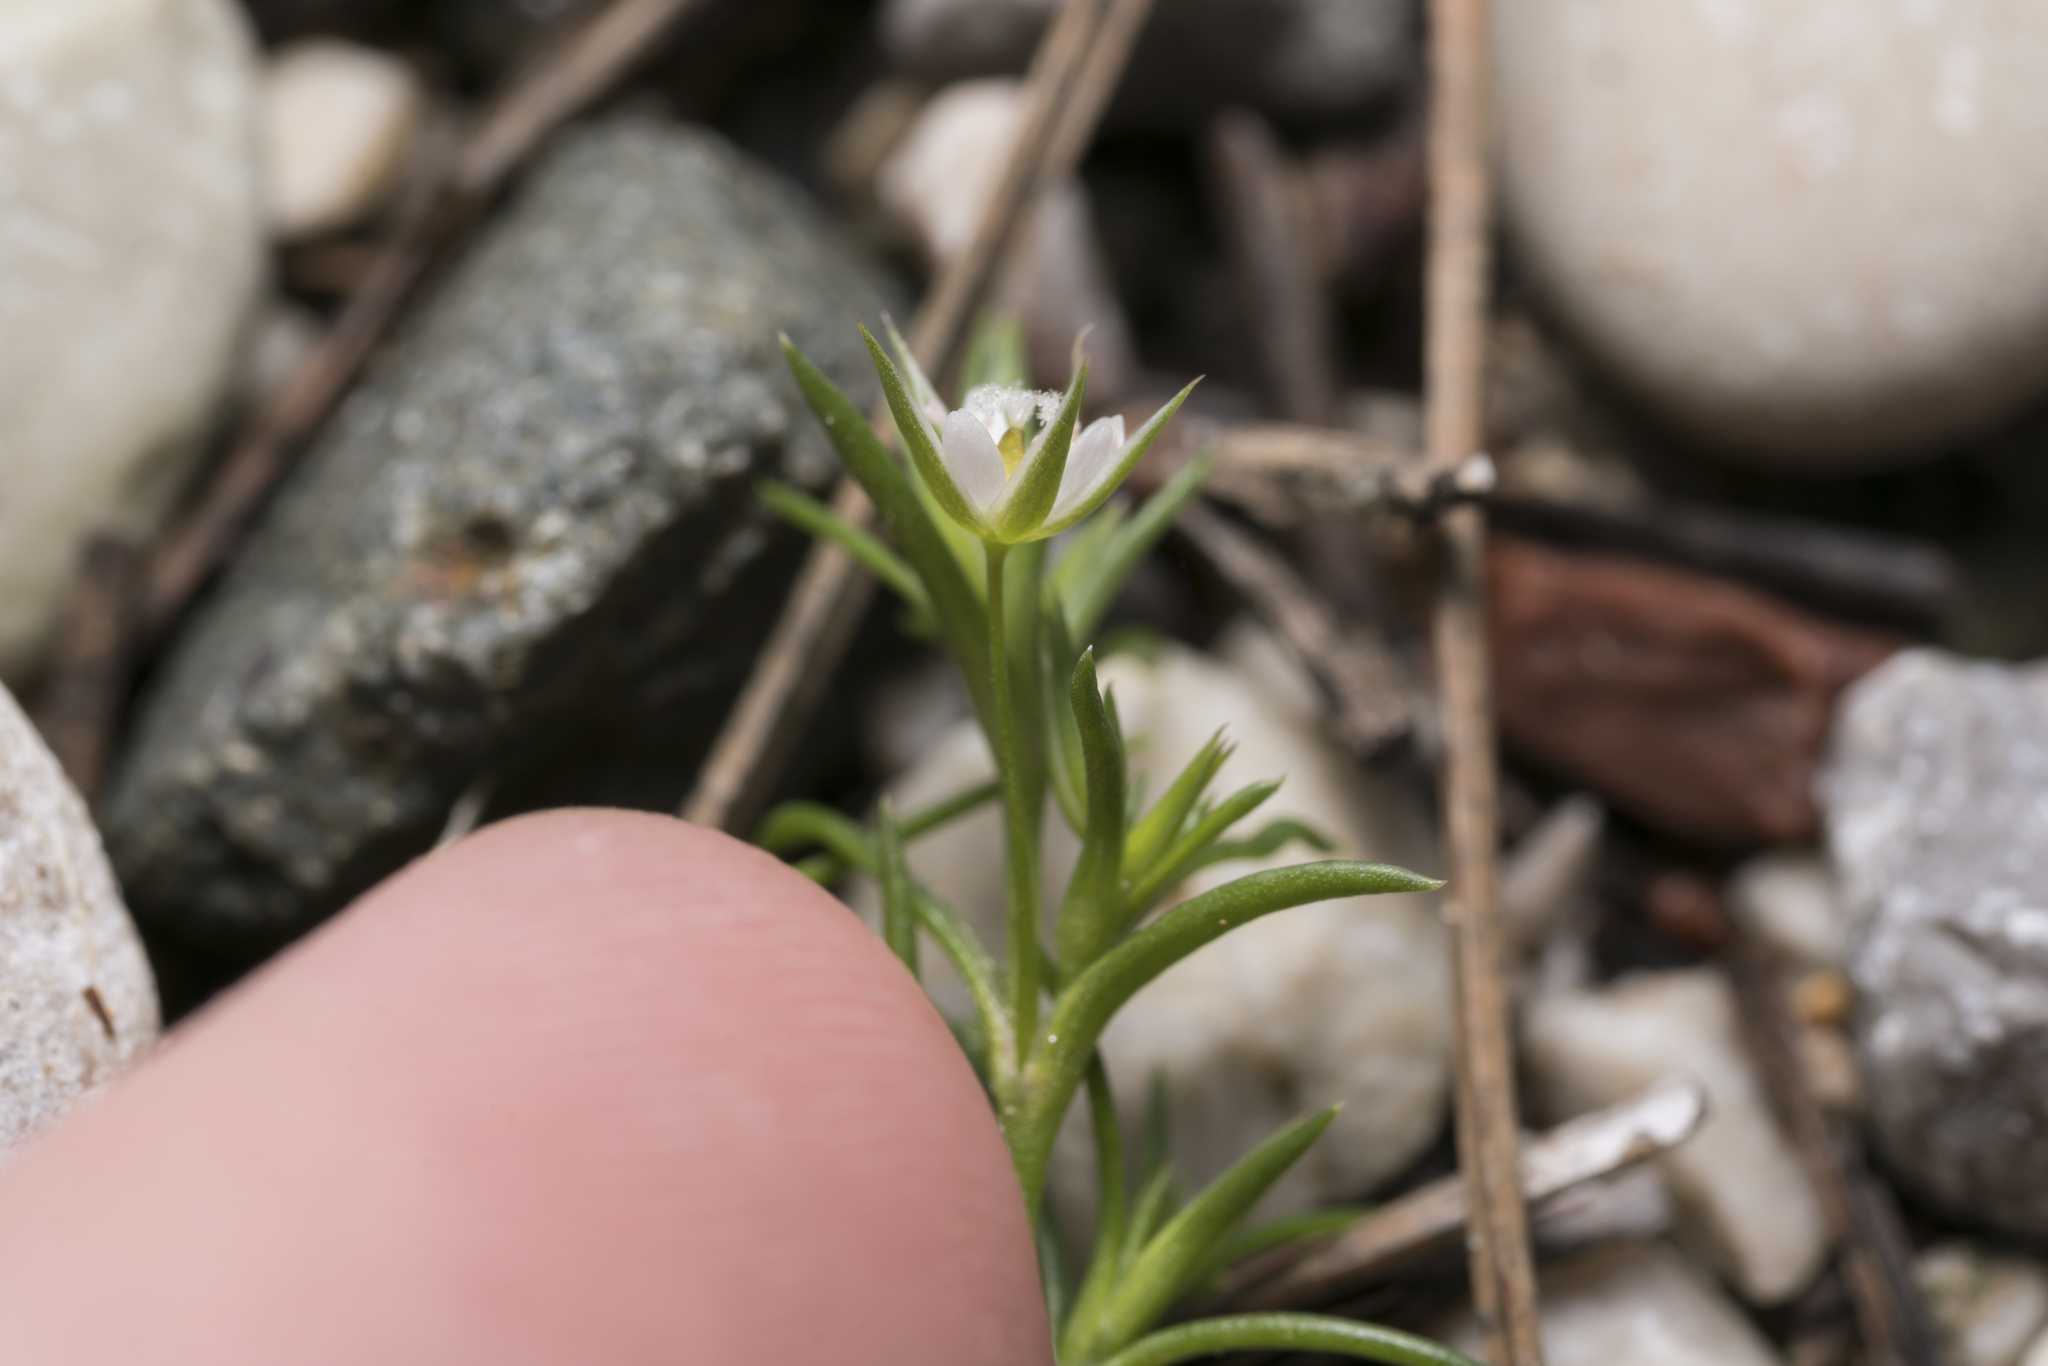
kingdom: Plantae
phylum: Tracheophyta
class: Magnoliopsida
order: Caryophyllales
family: Caryophyllaceae
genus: Sabulina
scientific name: Sabulina tenuifolia
